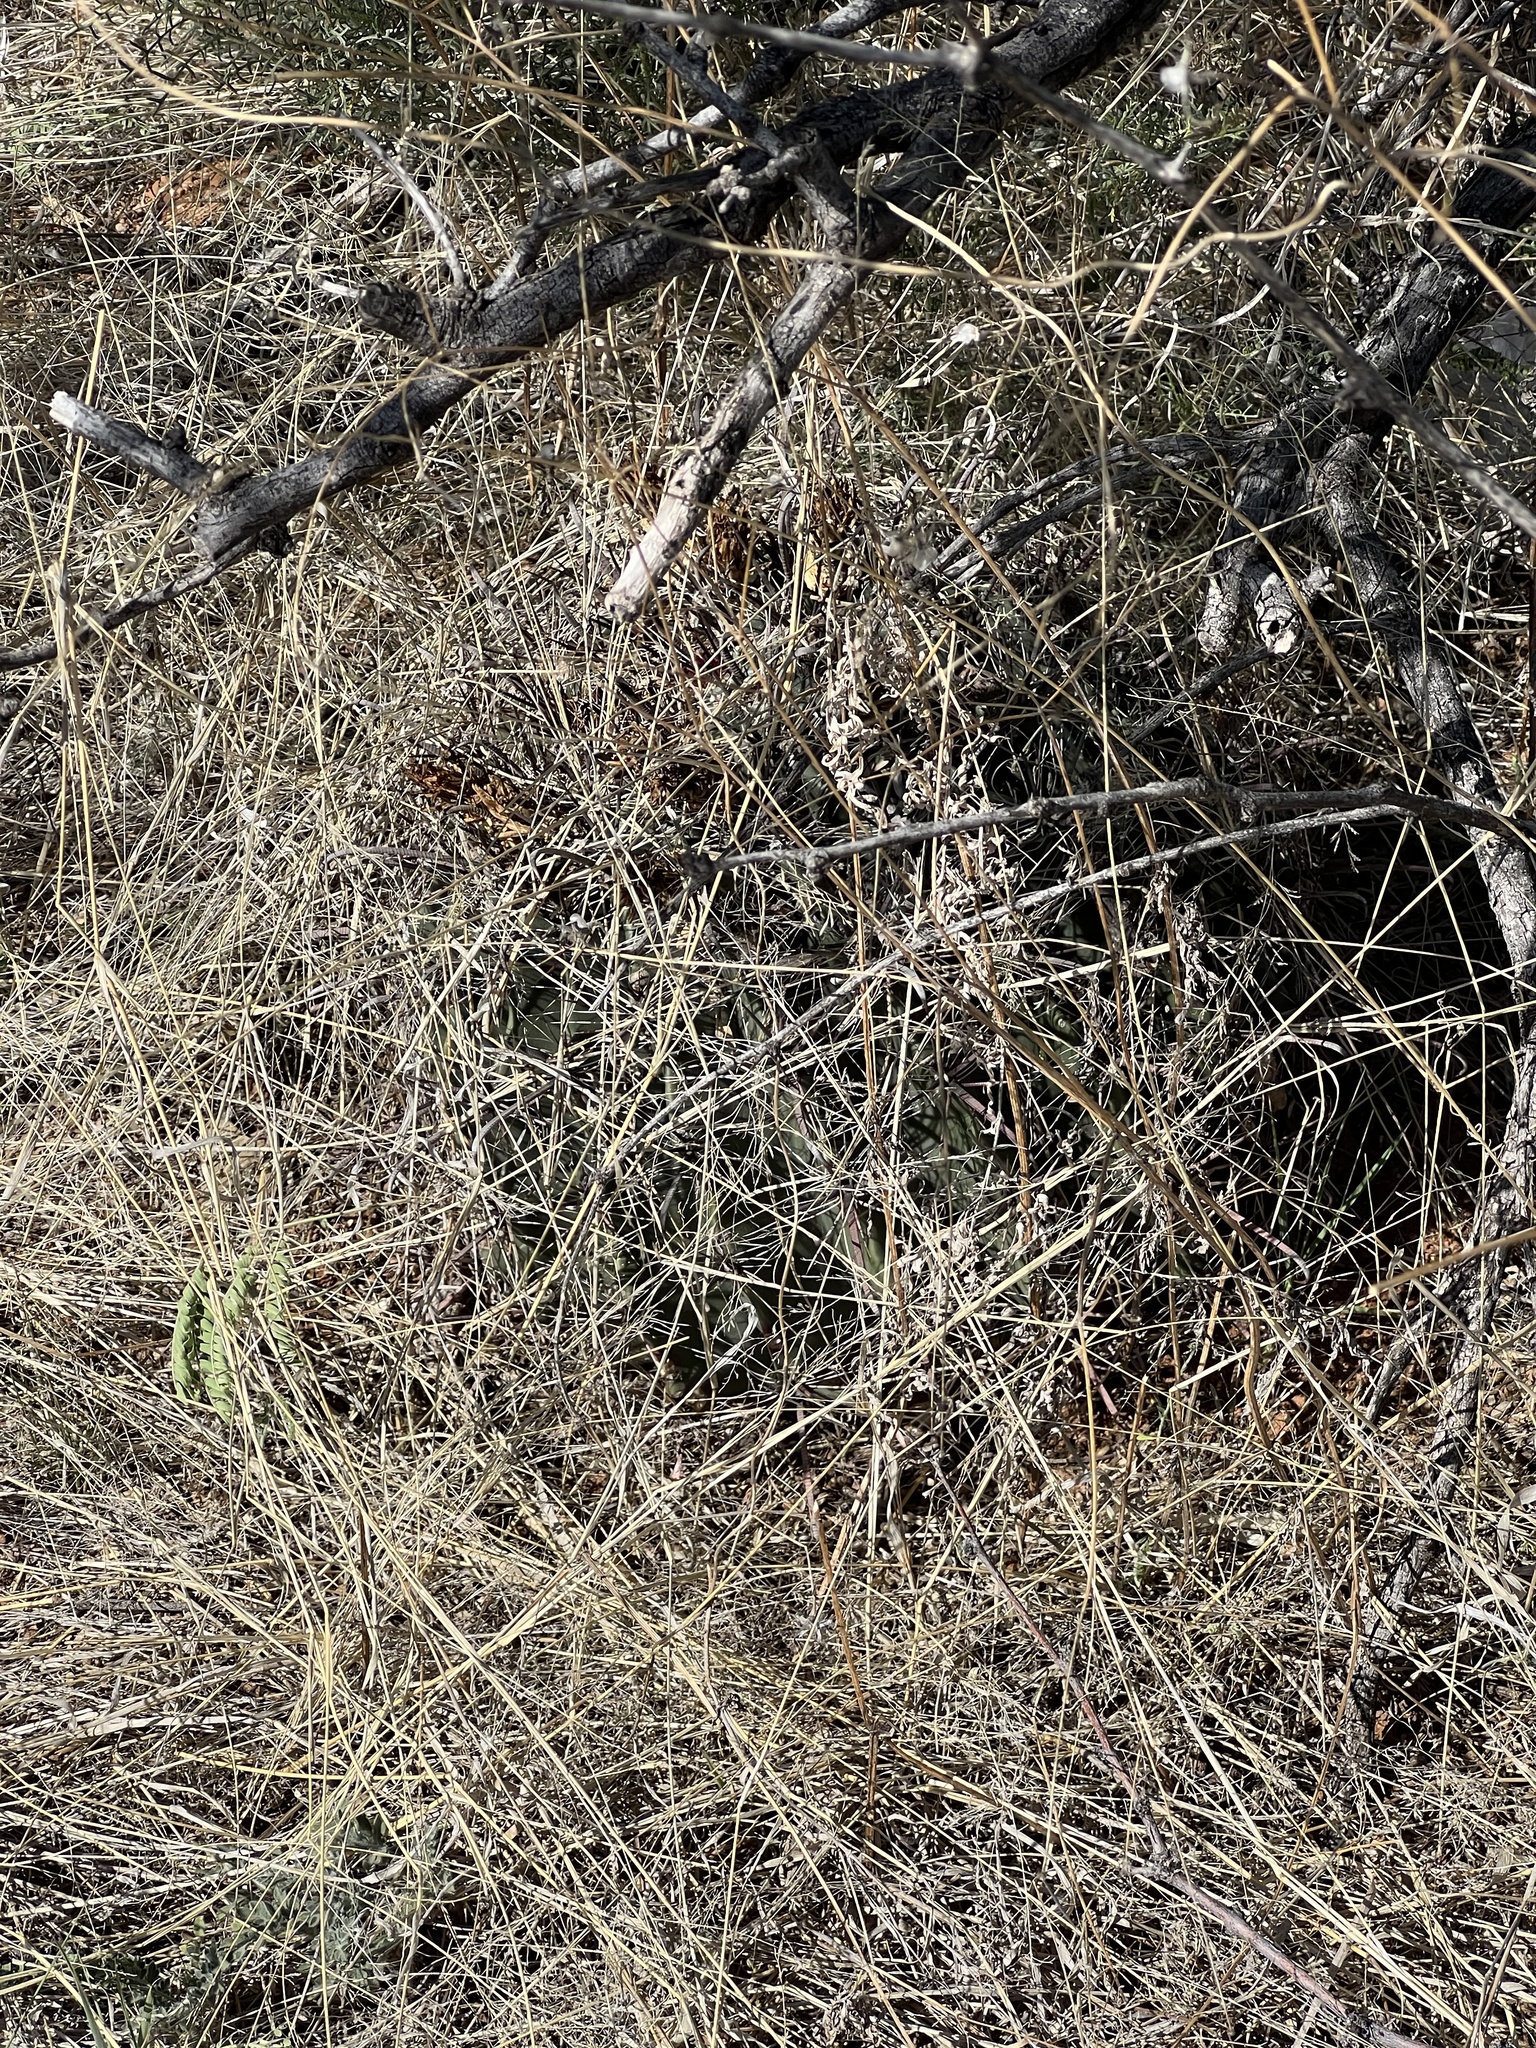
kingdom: Plantae
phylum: Tracheophyta
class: Magnoliopsida
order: Caryophyllales
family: Cactaceae
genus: Ferocactus
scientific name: Ferocactus wislizeni
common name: Candy barrel cactus
